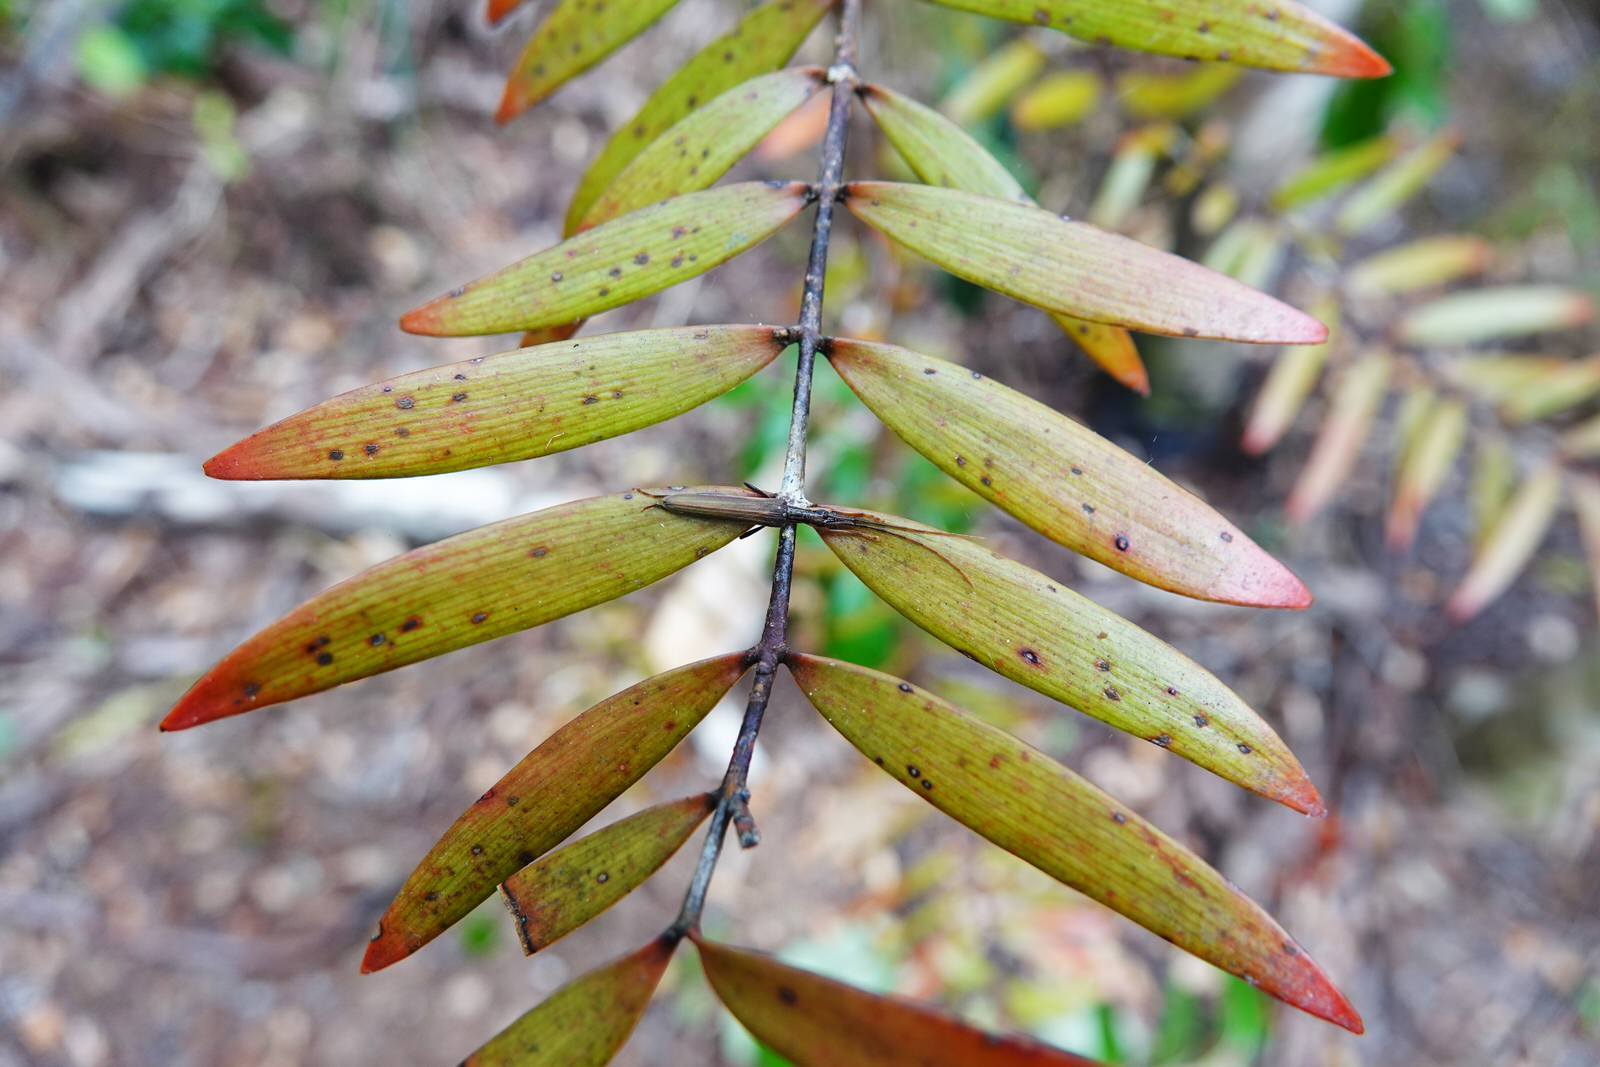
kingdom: Animalia
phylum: Arthropoda
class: Insecta
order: Coleoptera
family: Cerambycidae
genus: Stenopotes
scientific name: Stenopotes pallidus
